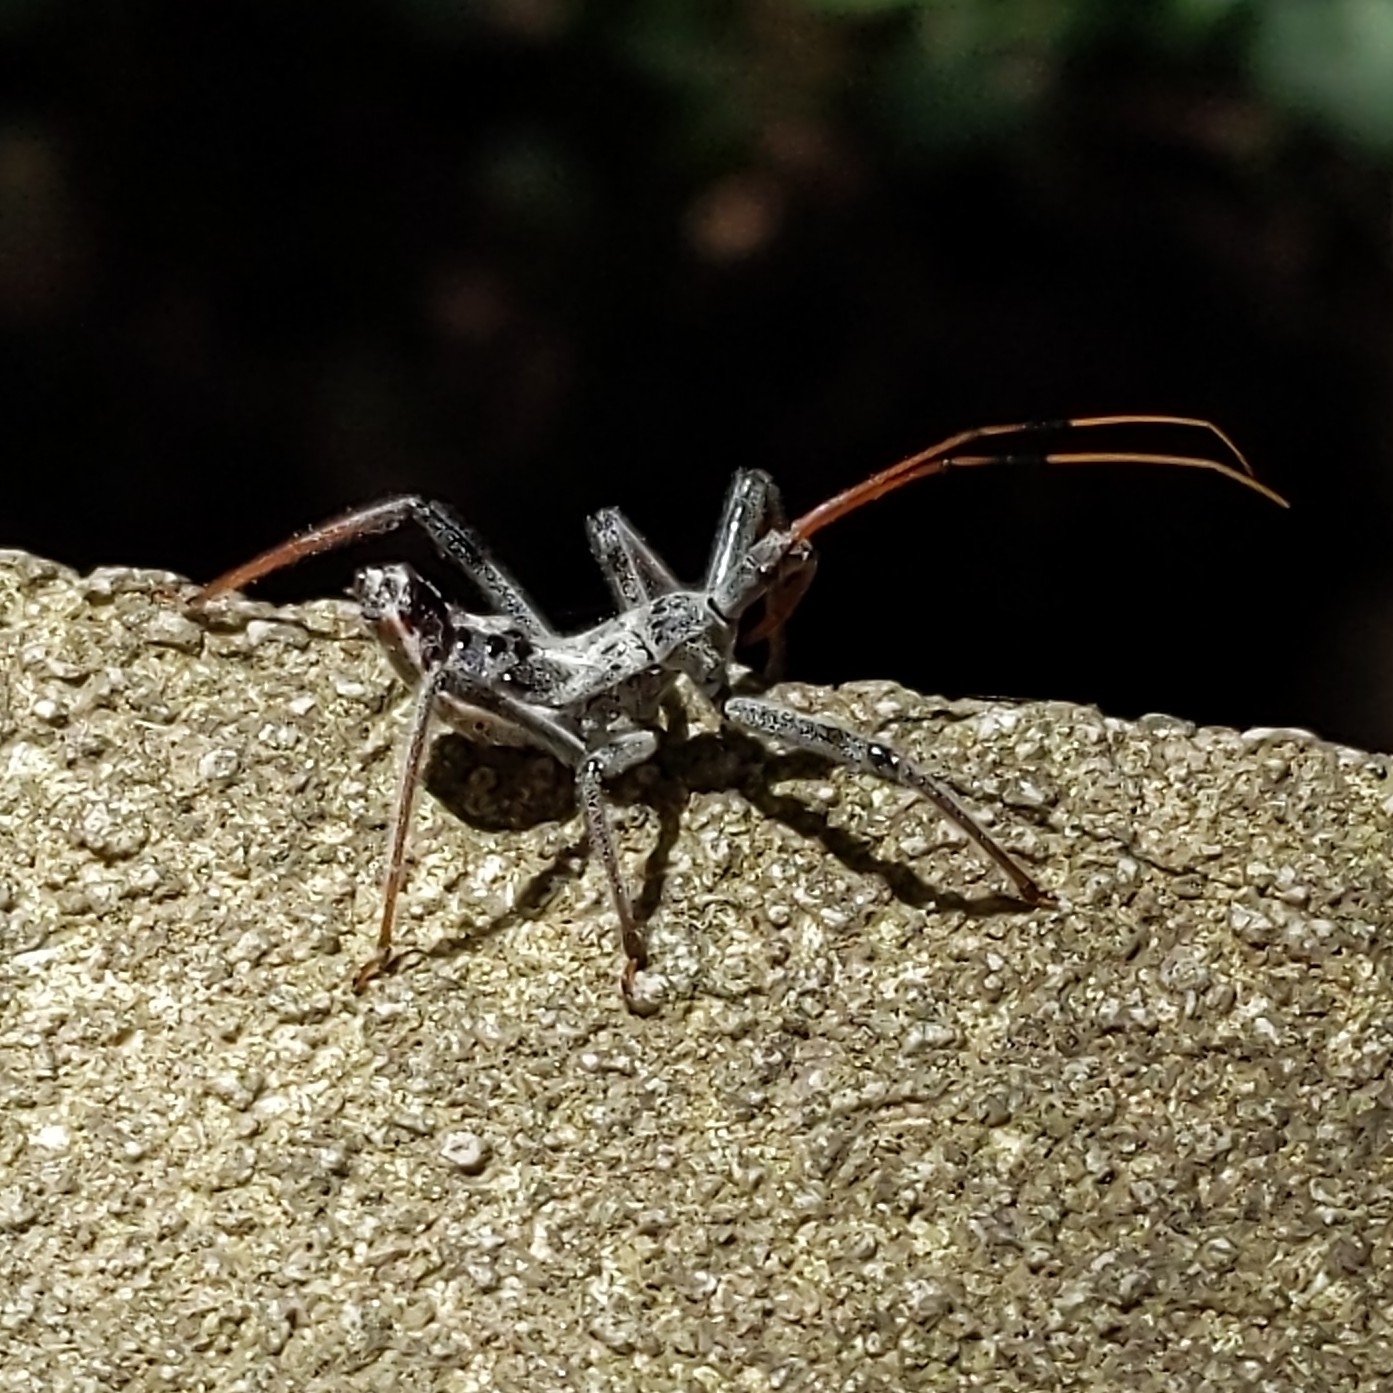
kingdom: Animalia
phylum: Arthropoda
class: Insecta
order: Hemiptera
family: Reduviidae
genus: Arilus
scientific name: Arilus cristatus
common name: North american wheel bug
